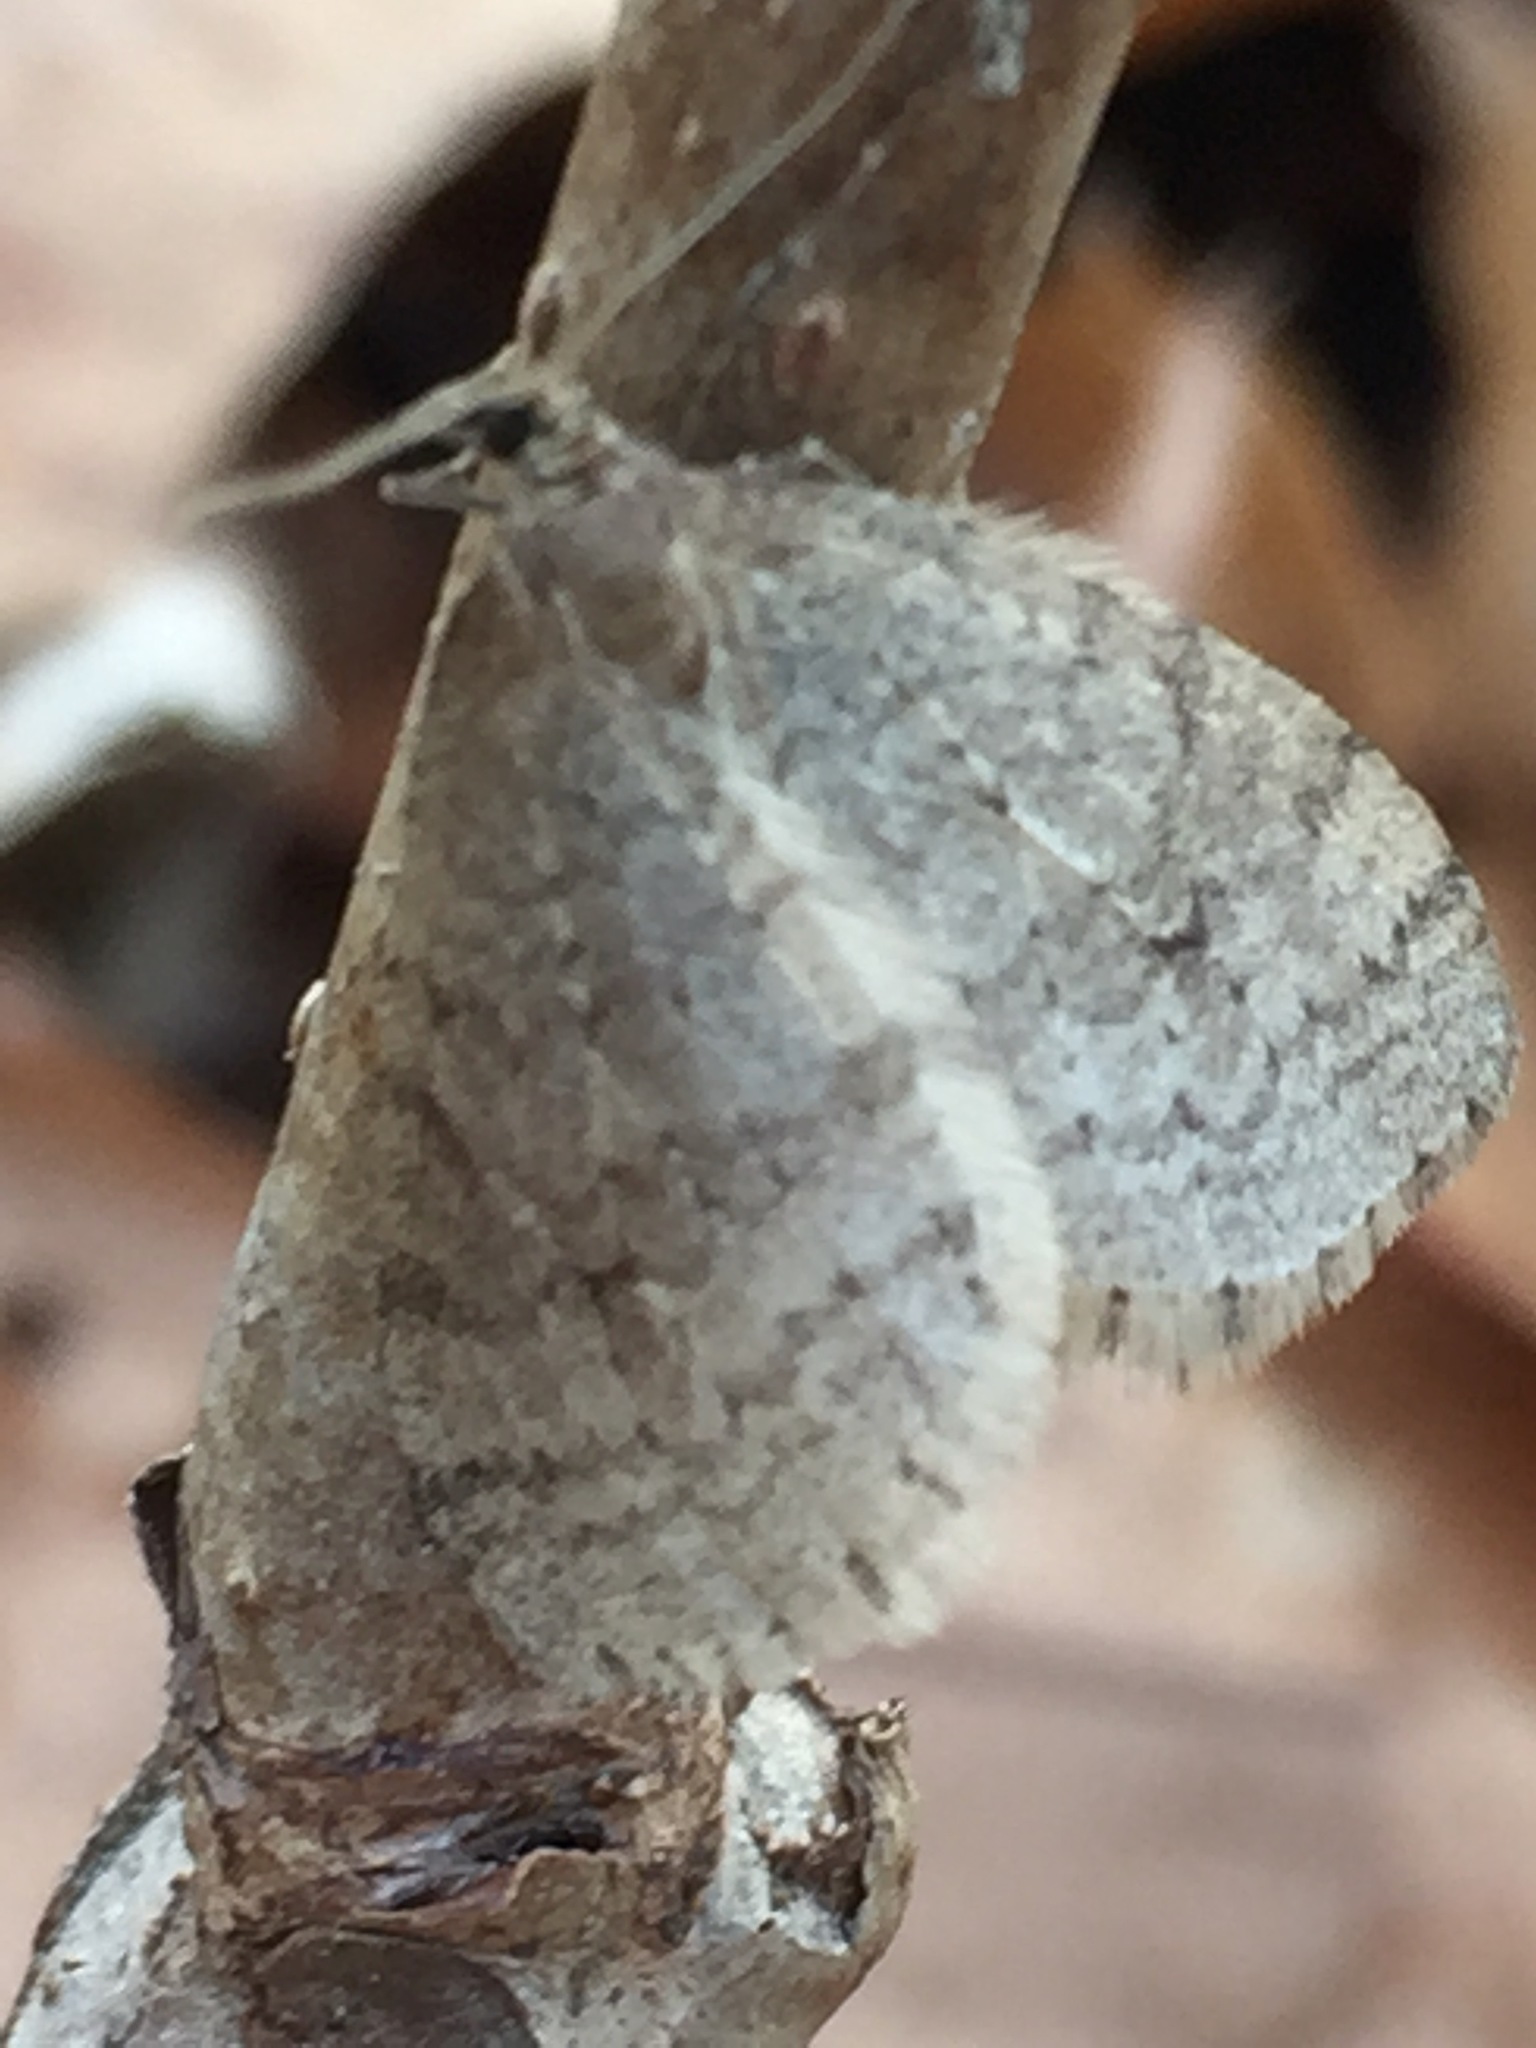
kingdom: Animalia
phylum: Arthropoda
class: Insecta
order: Lepidoptera
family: Geometridae
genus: Operophtera
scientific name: Operophtera bruceata
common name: Bruce spanworm
